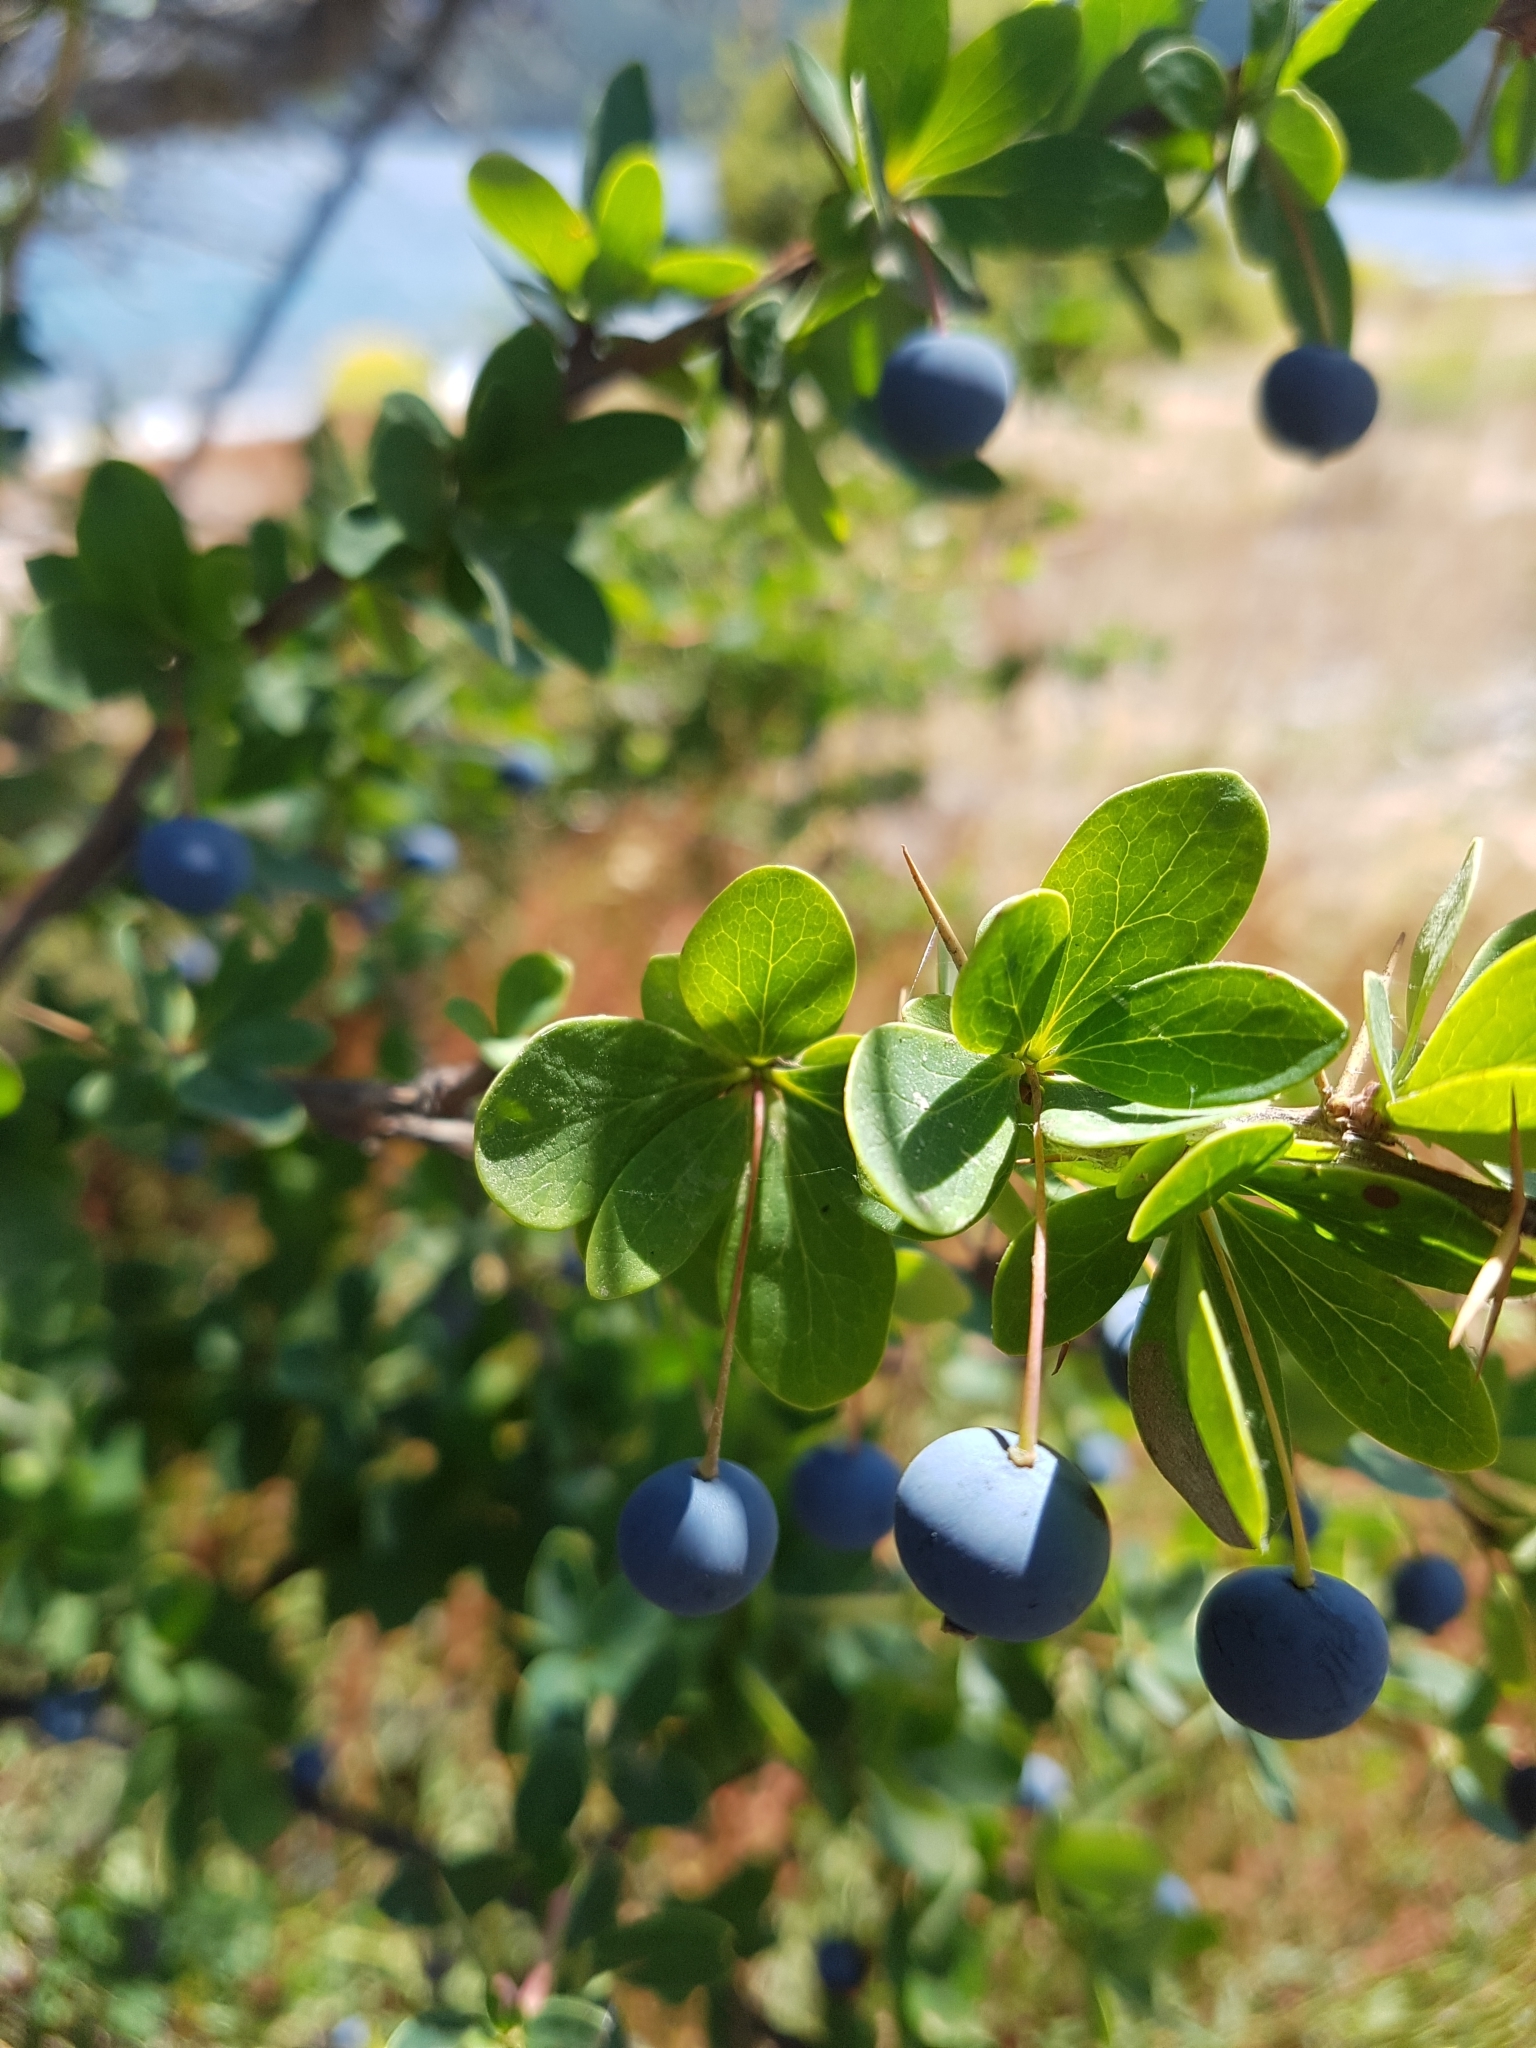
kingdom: Plantae
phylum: Tracheophyta
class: Magnoliopsida
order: Ranunculales
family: Berberidaceae
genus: Berberis
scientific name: Berberis microphylla
